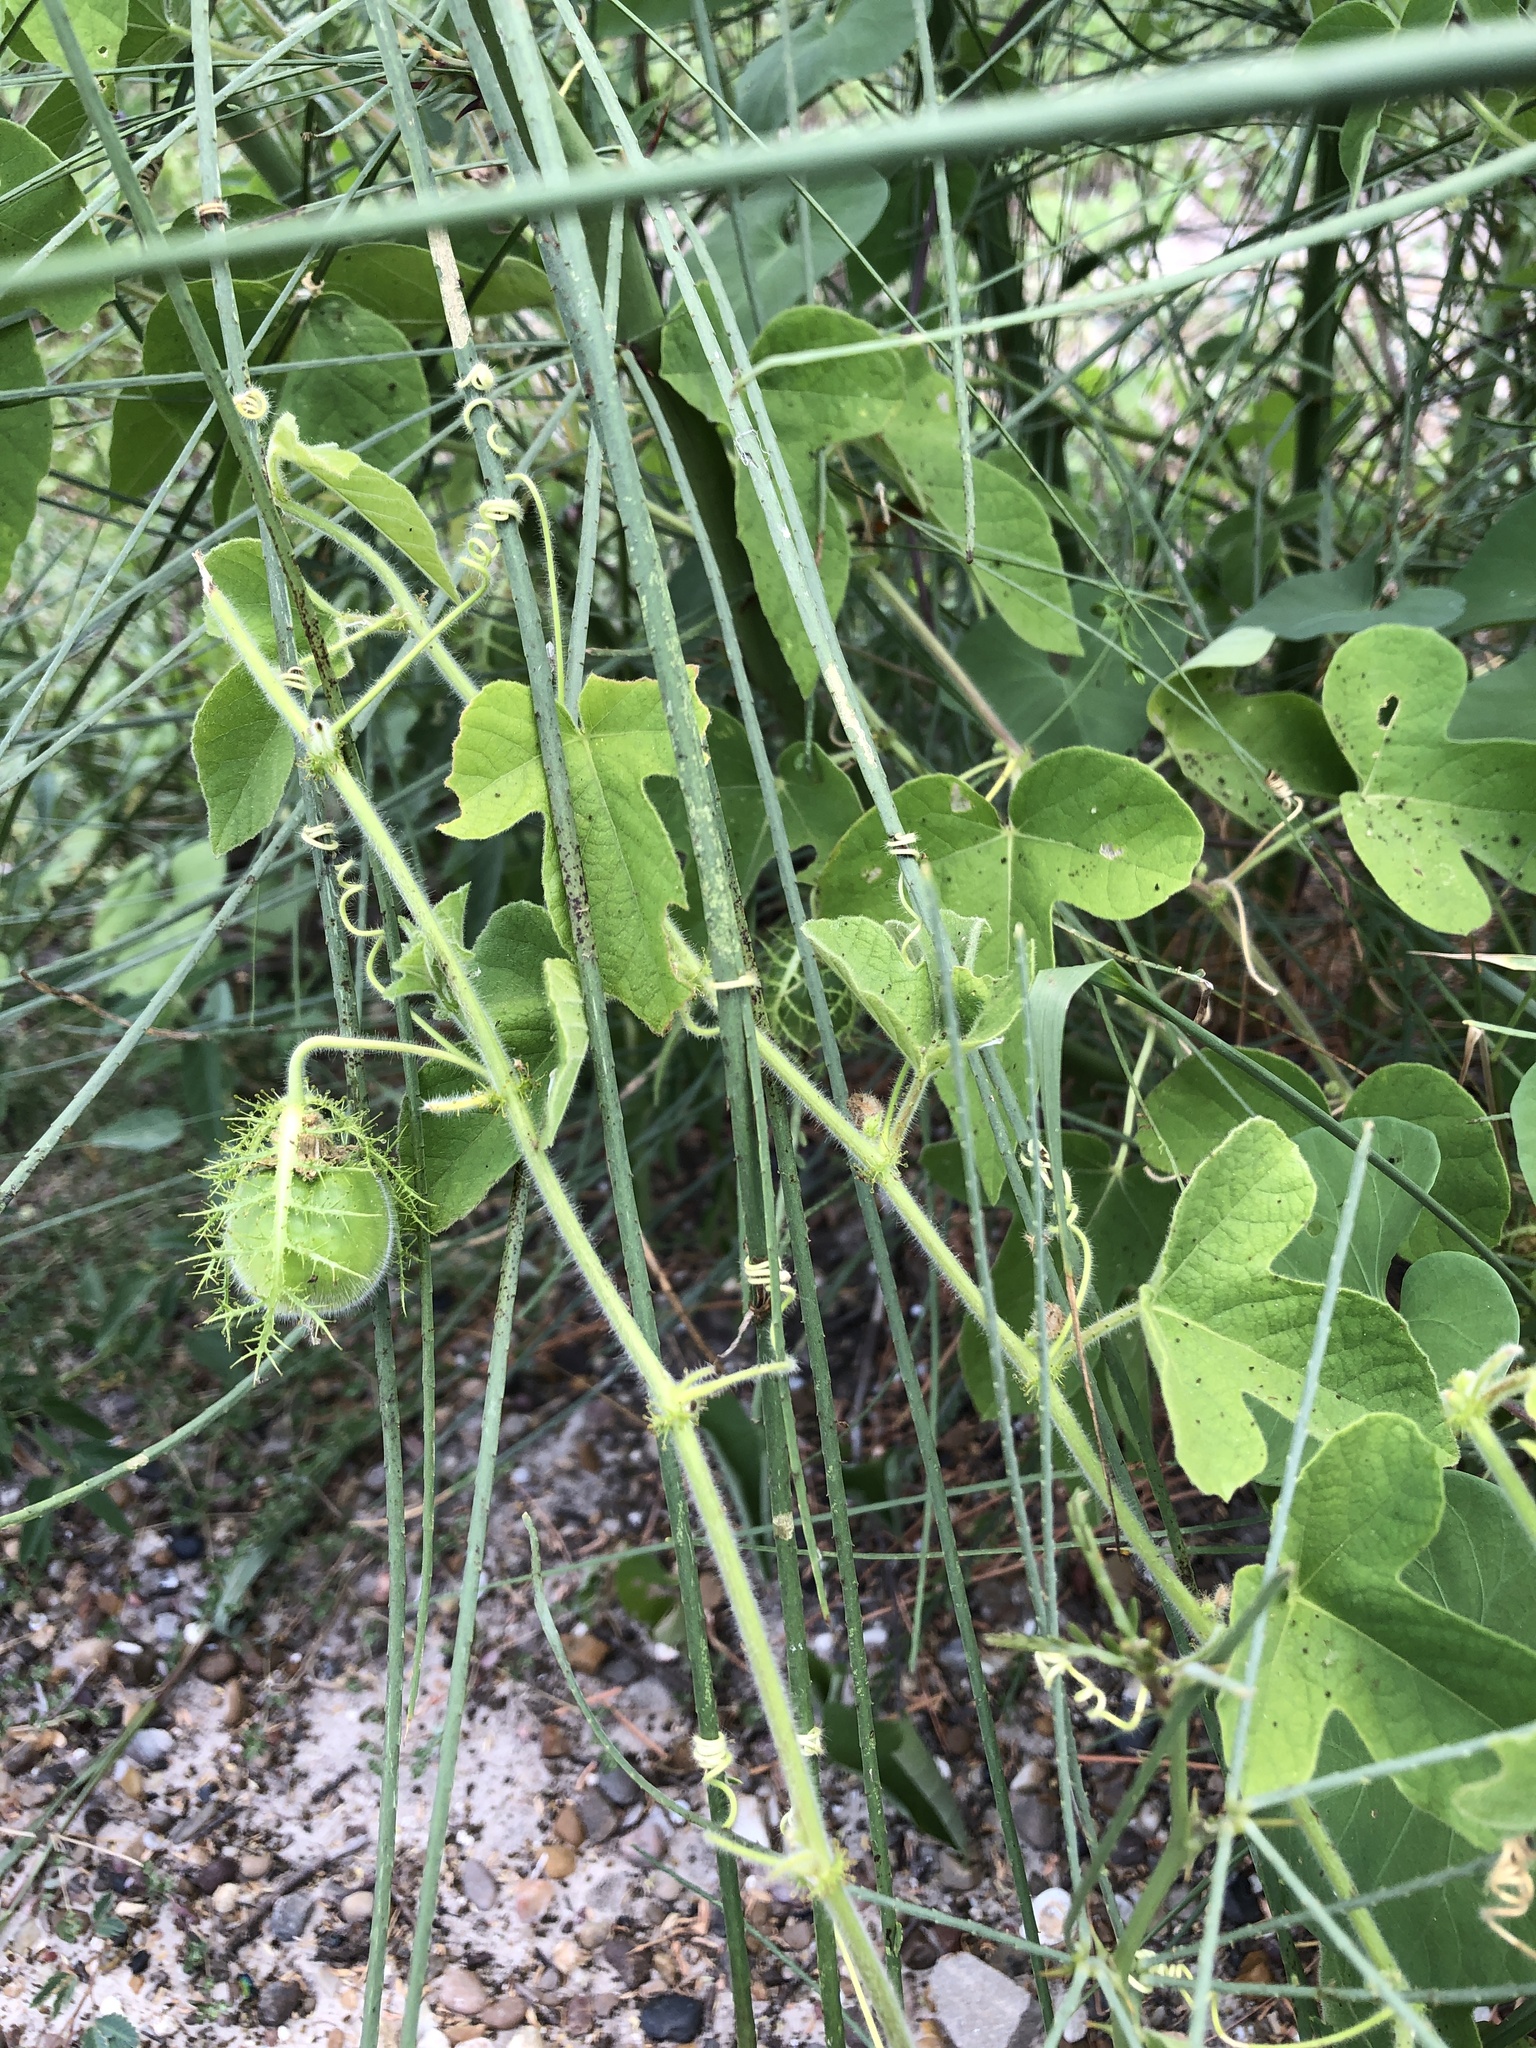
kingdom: Plantae
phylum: Tracheophyta
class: Magnoliopsida
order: Malpighiales
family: Passifloraceae
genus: Passiflora
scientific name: Passiflora foetida
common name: Fetid passionflower
